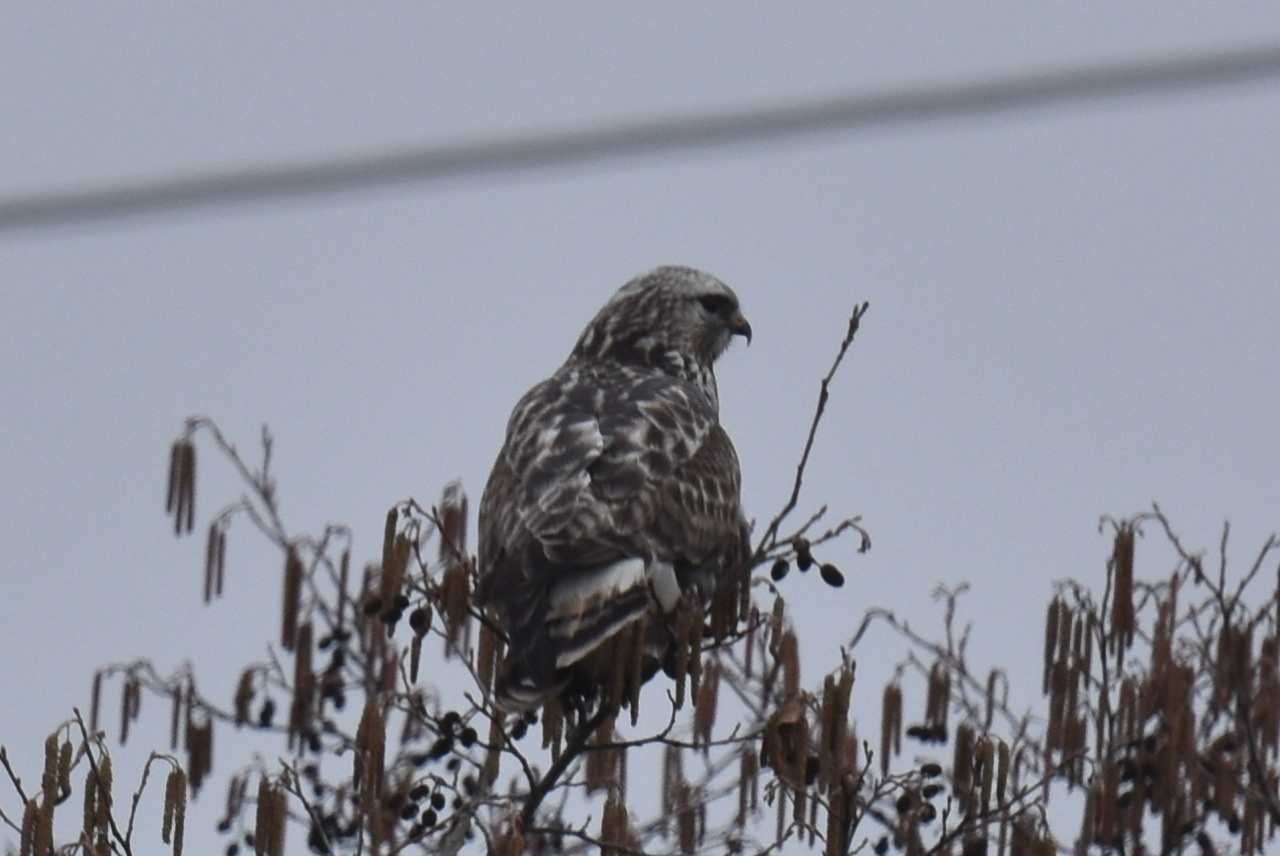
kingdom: Animalia
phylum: Chordata
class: Aves
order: Accipitriformes
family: Accipitridae
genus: Buteo
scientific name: Buteo lagopus
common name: Rough-legged buzzard
